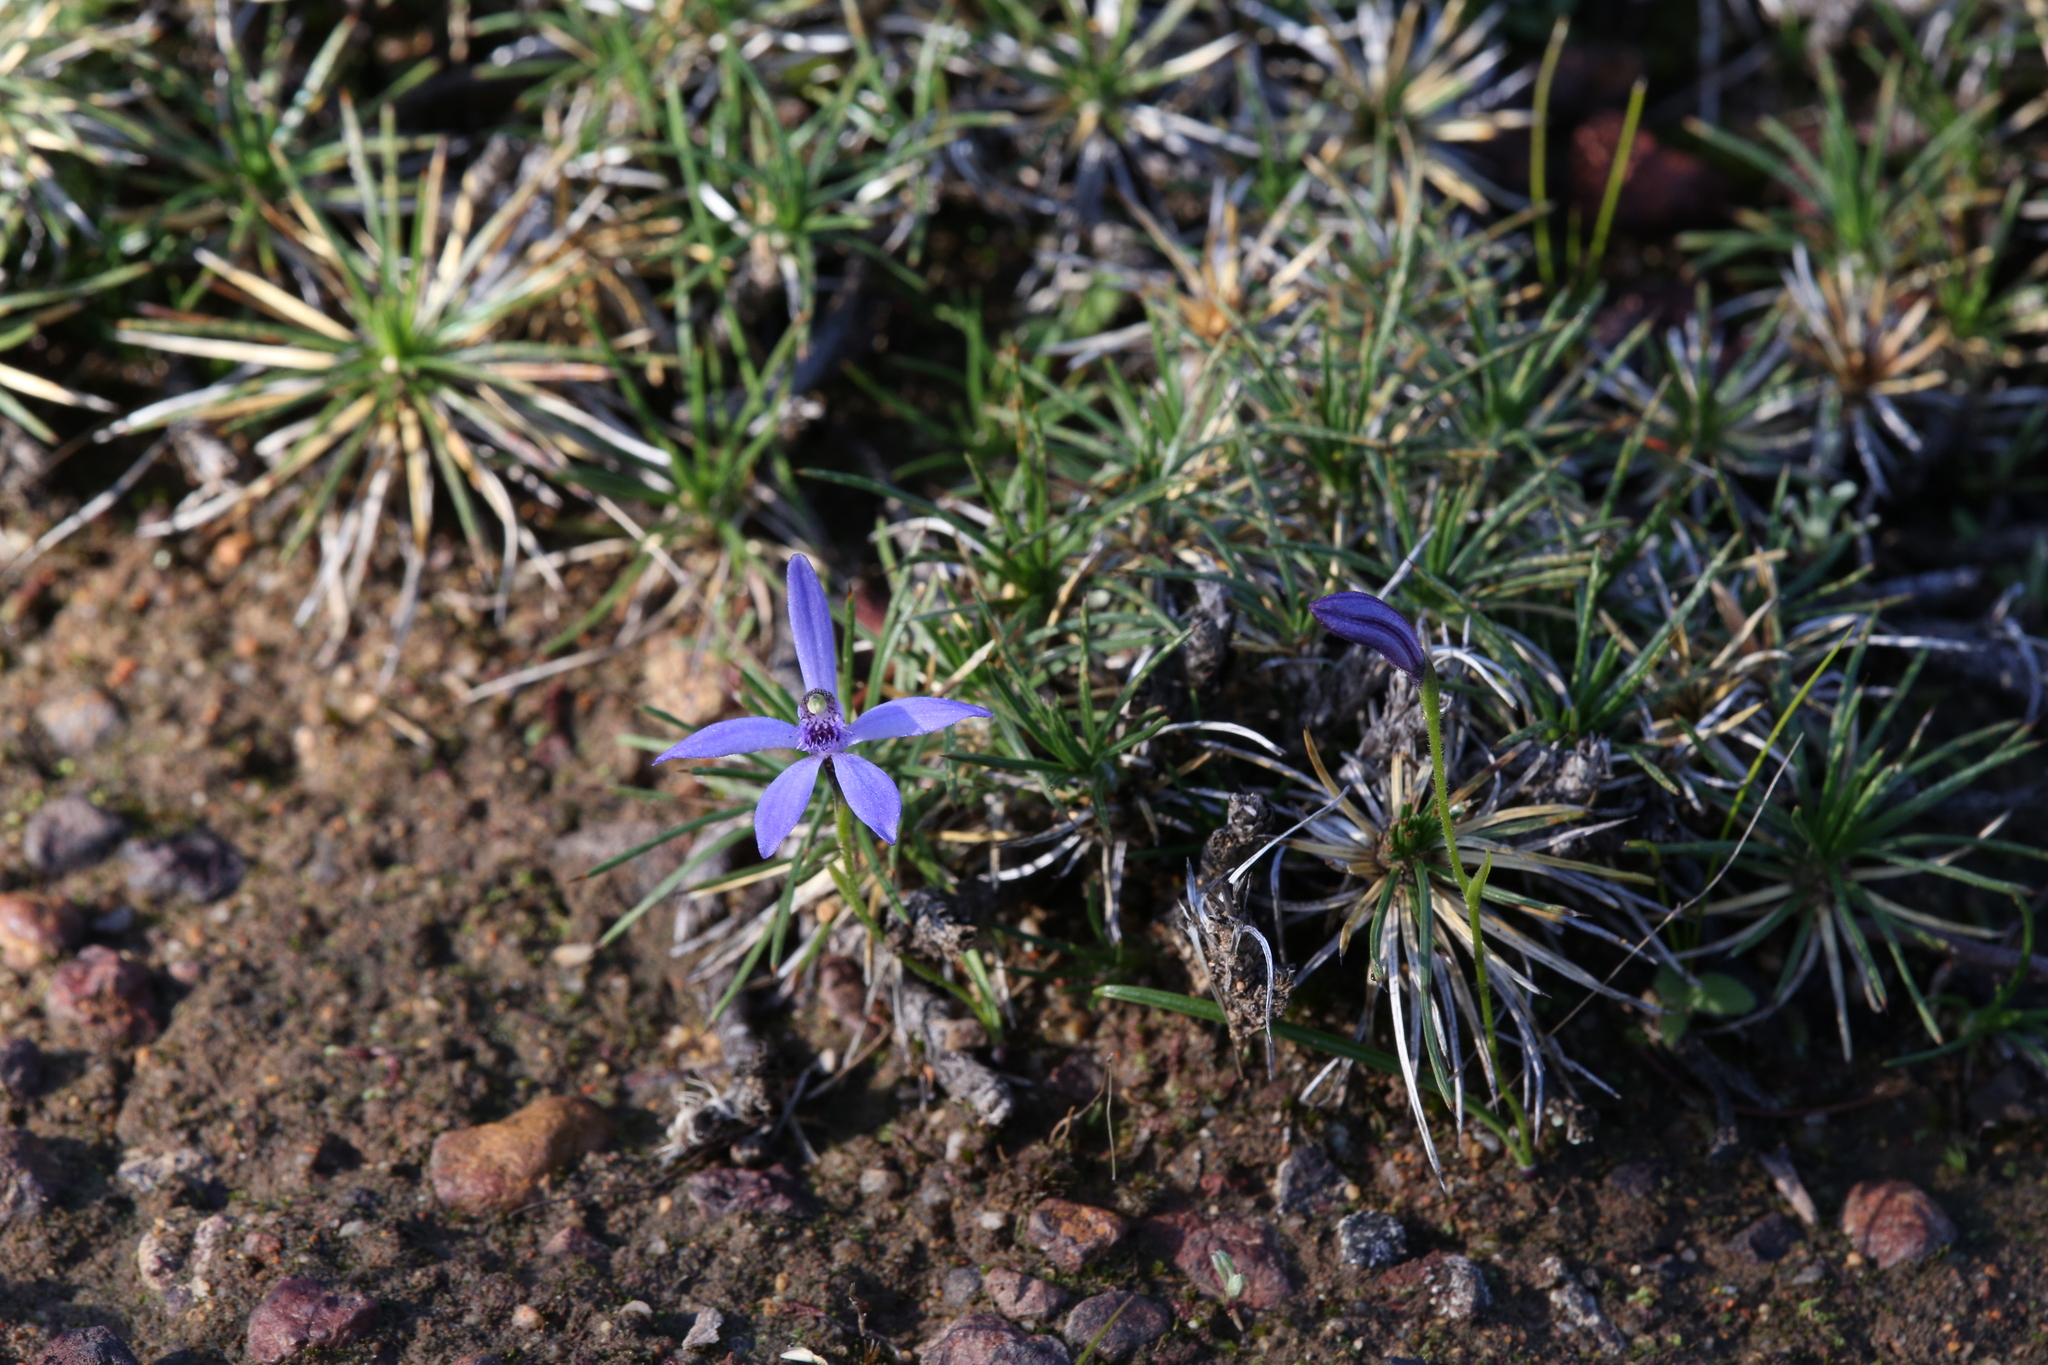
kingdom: Plantae
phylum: Tracheophyta
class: Liliopsida
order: Asparagales
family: Orchidaceae
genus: Pheladenia
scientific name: Pheladenia deformis
